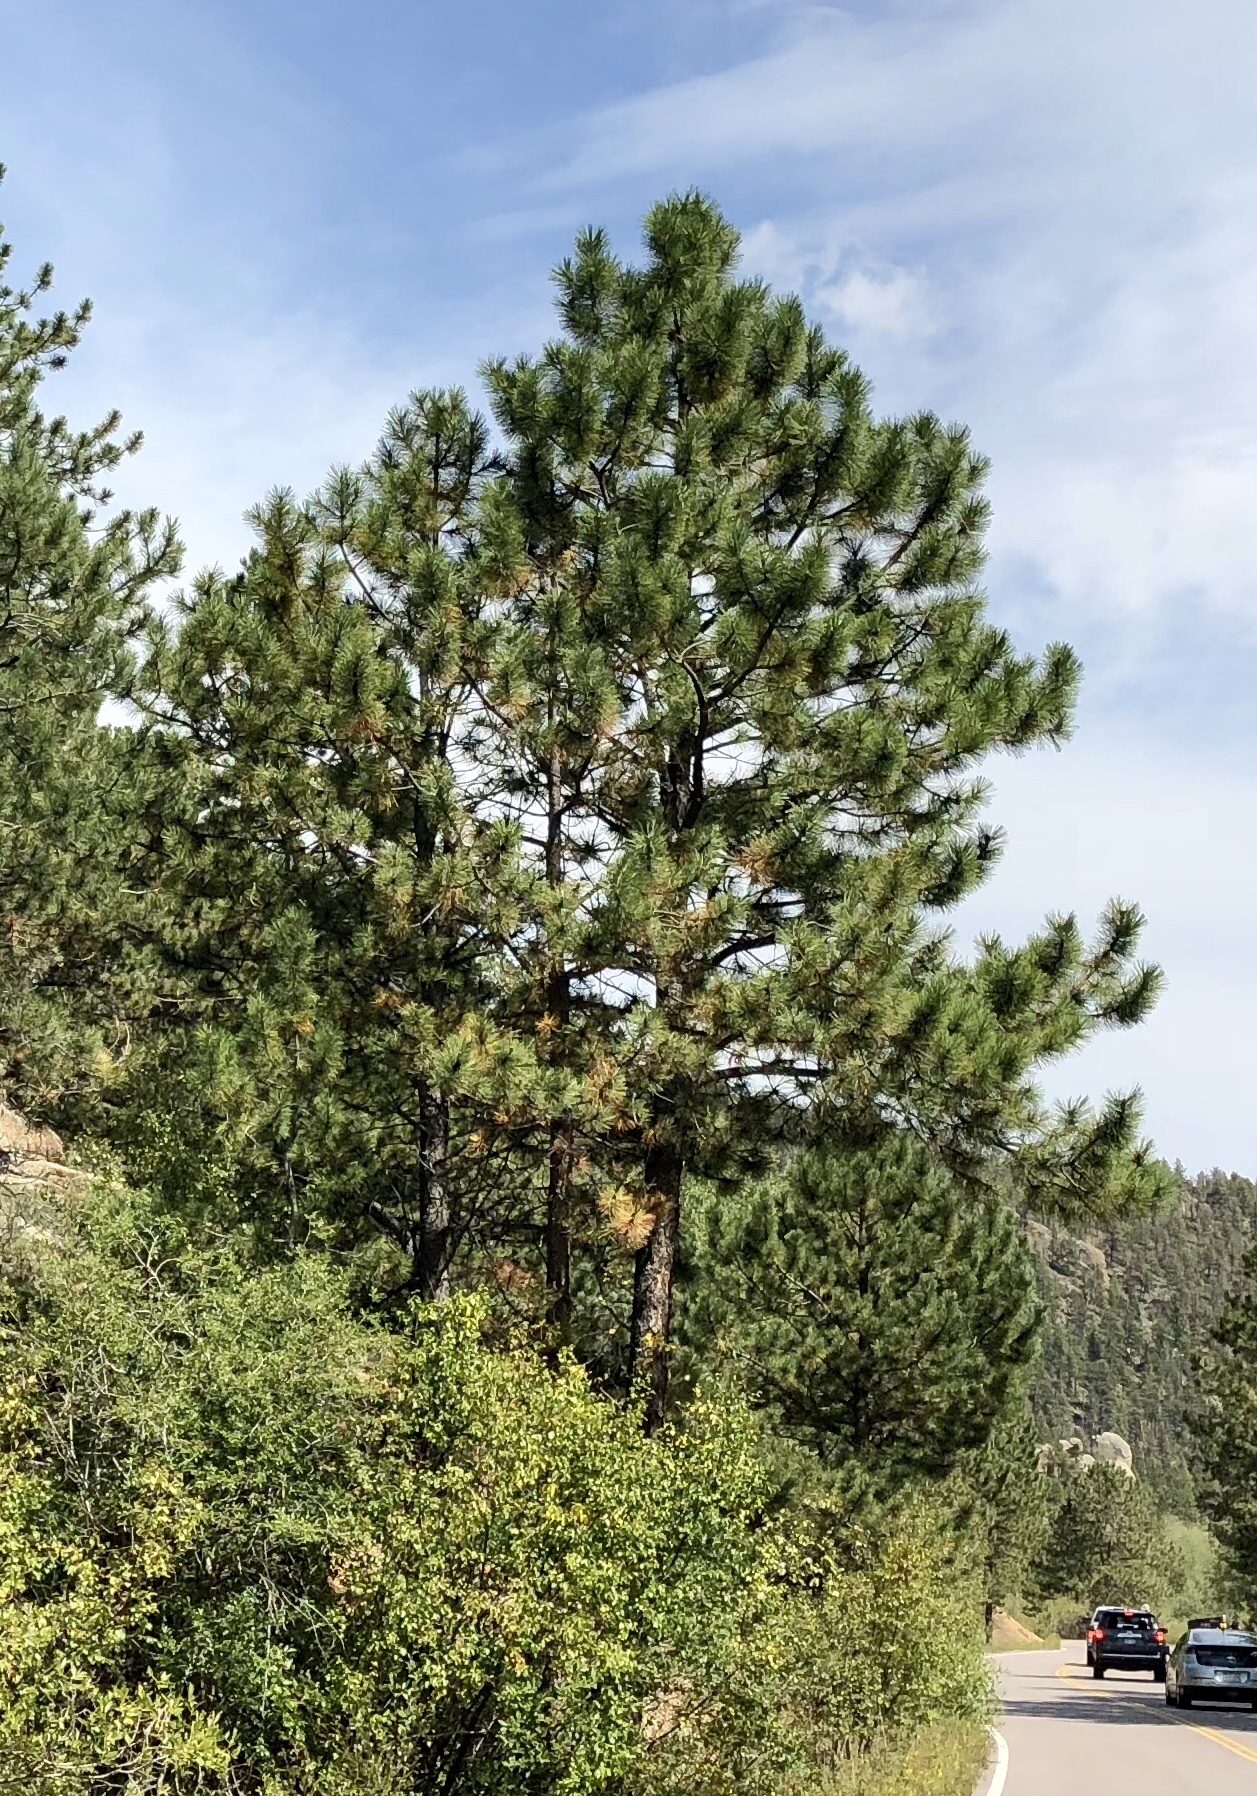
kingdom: Plantae
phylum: Tracheophyta
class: Pinopsida
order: Pinales
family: Pinaceae
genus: Pinus
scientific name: Pinus ponderosa
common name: Western yellow-pine
